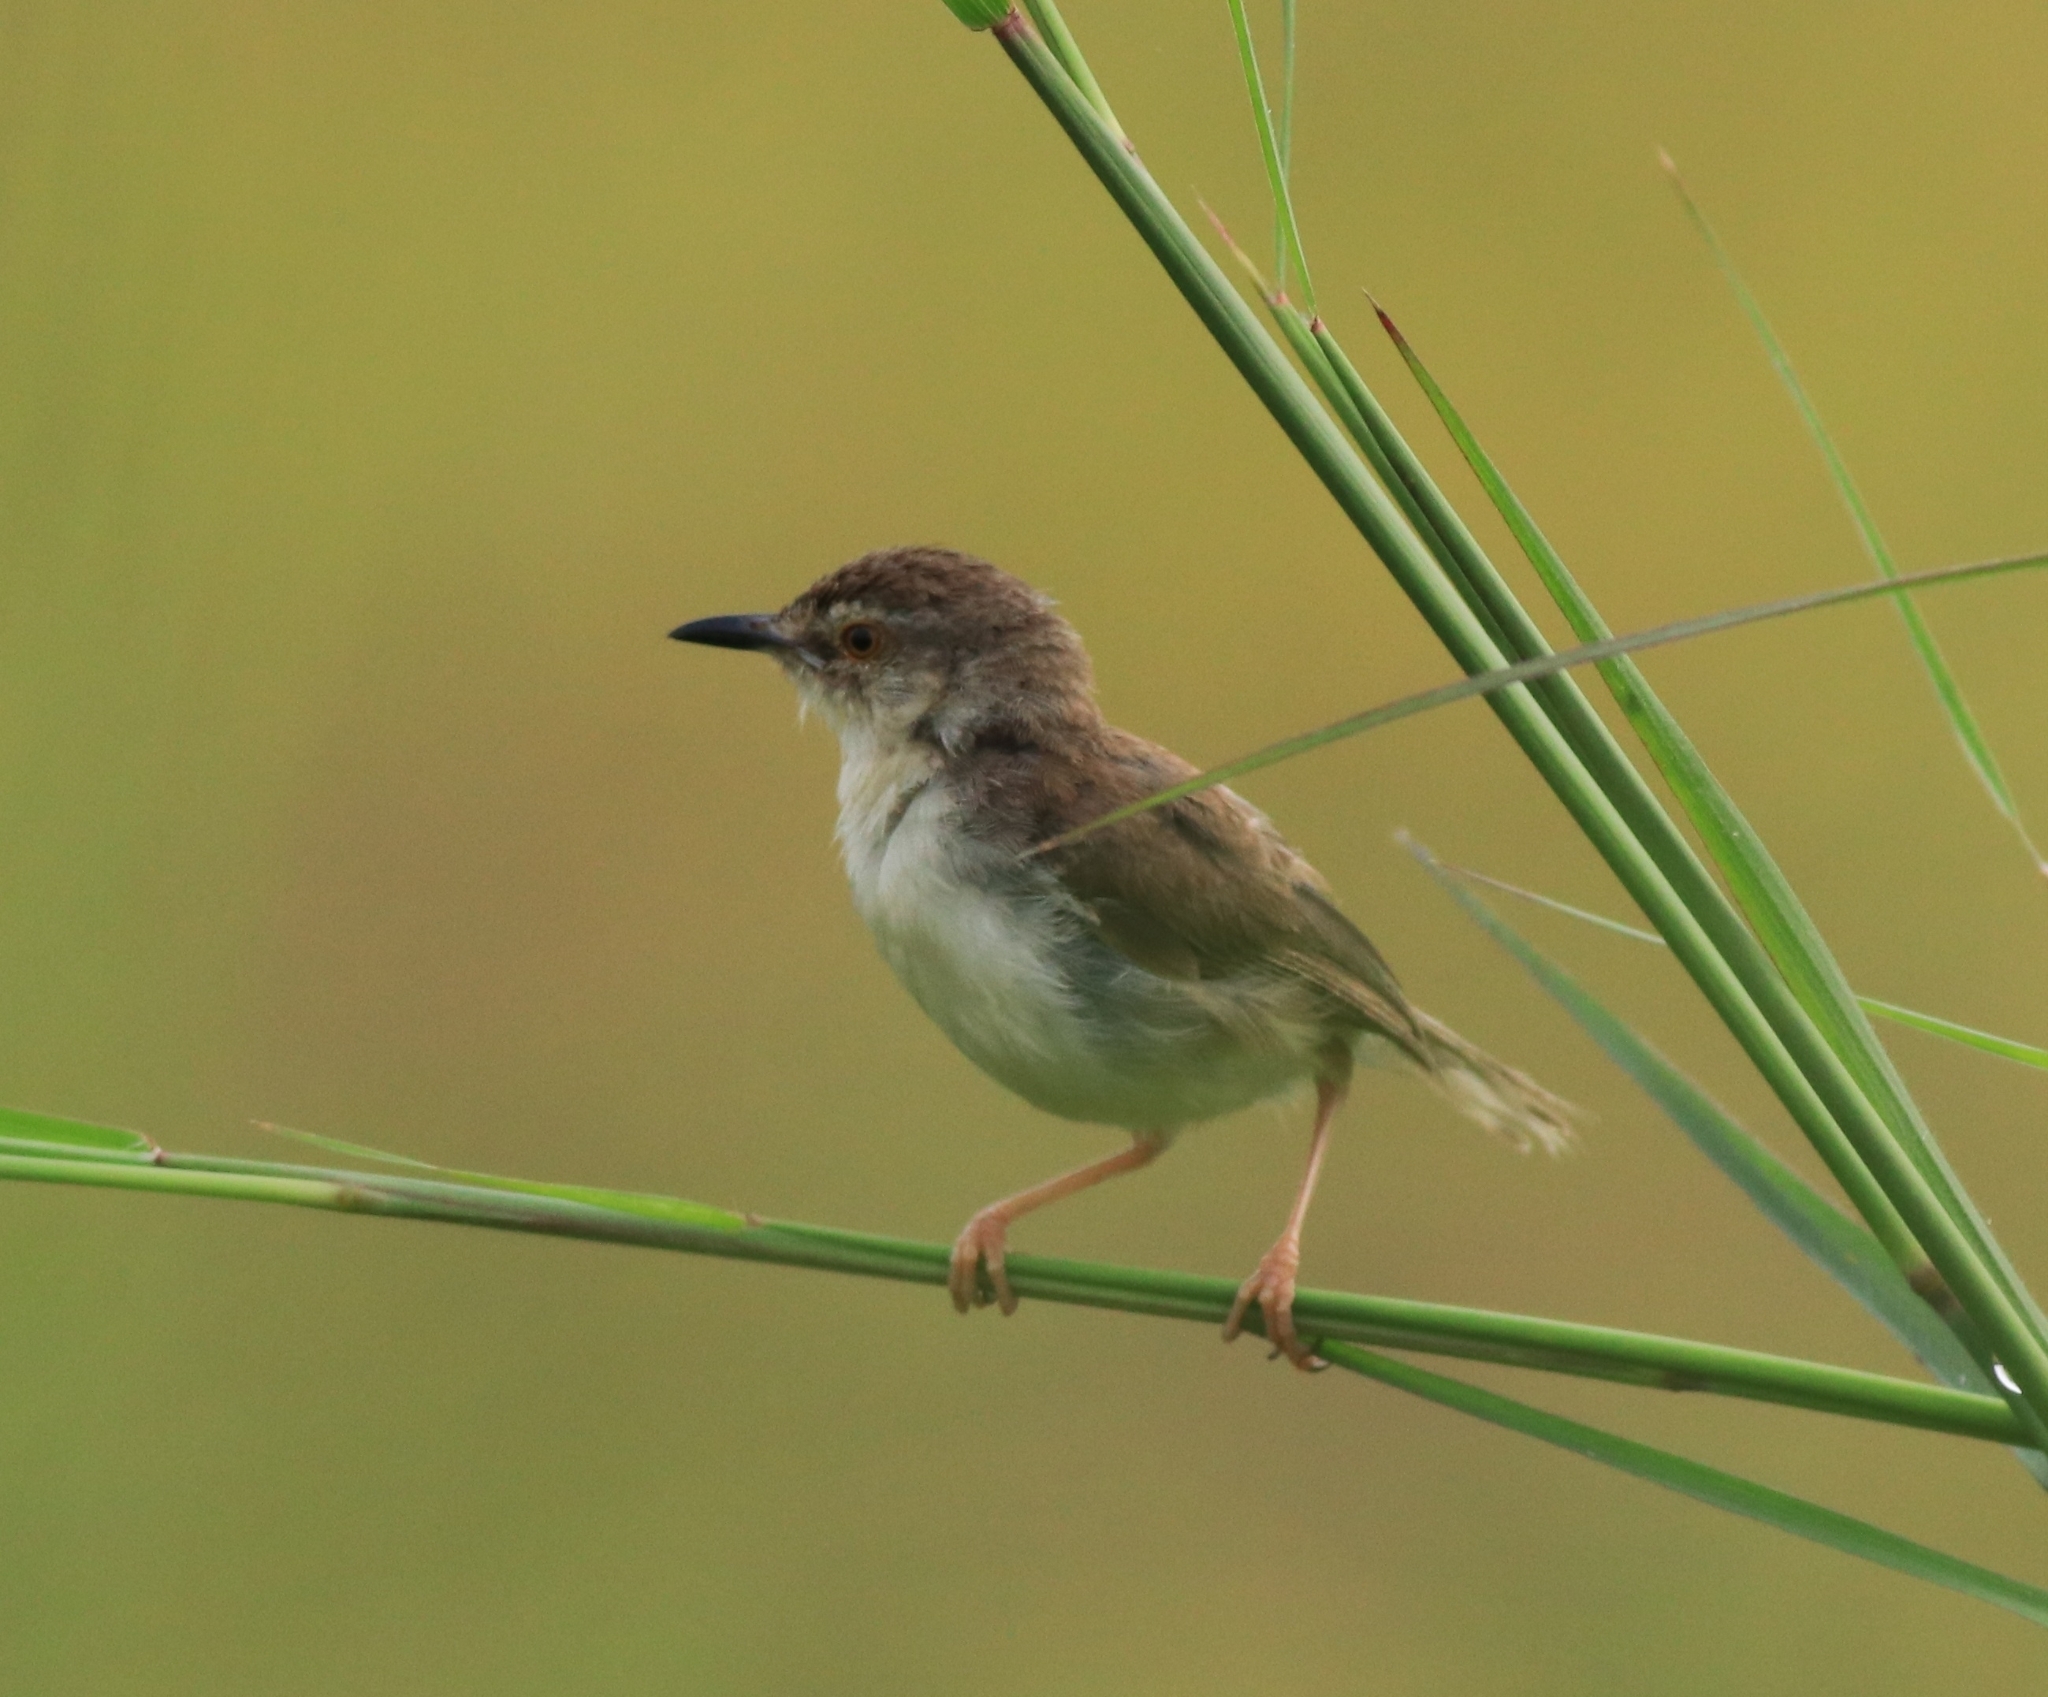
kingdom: Animalia
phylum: Chordata
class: Aves
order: Passeriformes
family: Cisticolidae
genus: Prinia
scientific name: Prinia inornata
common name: Plain prinia
